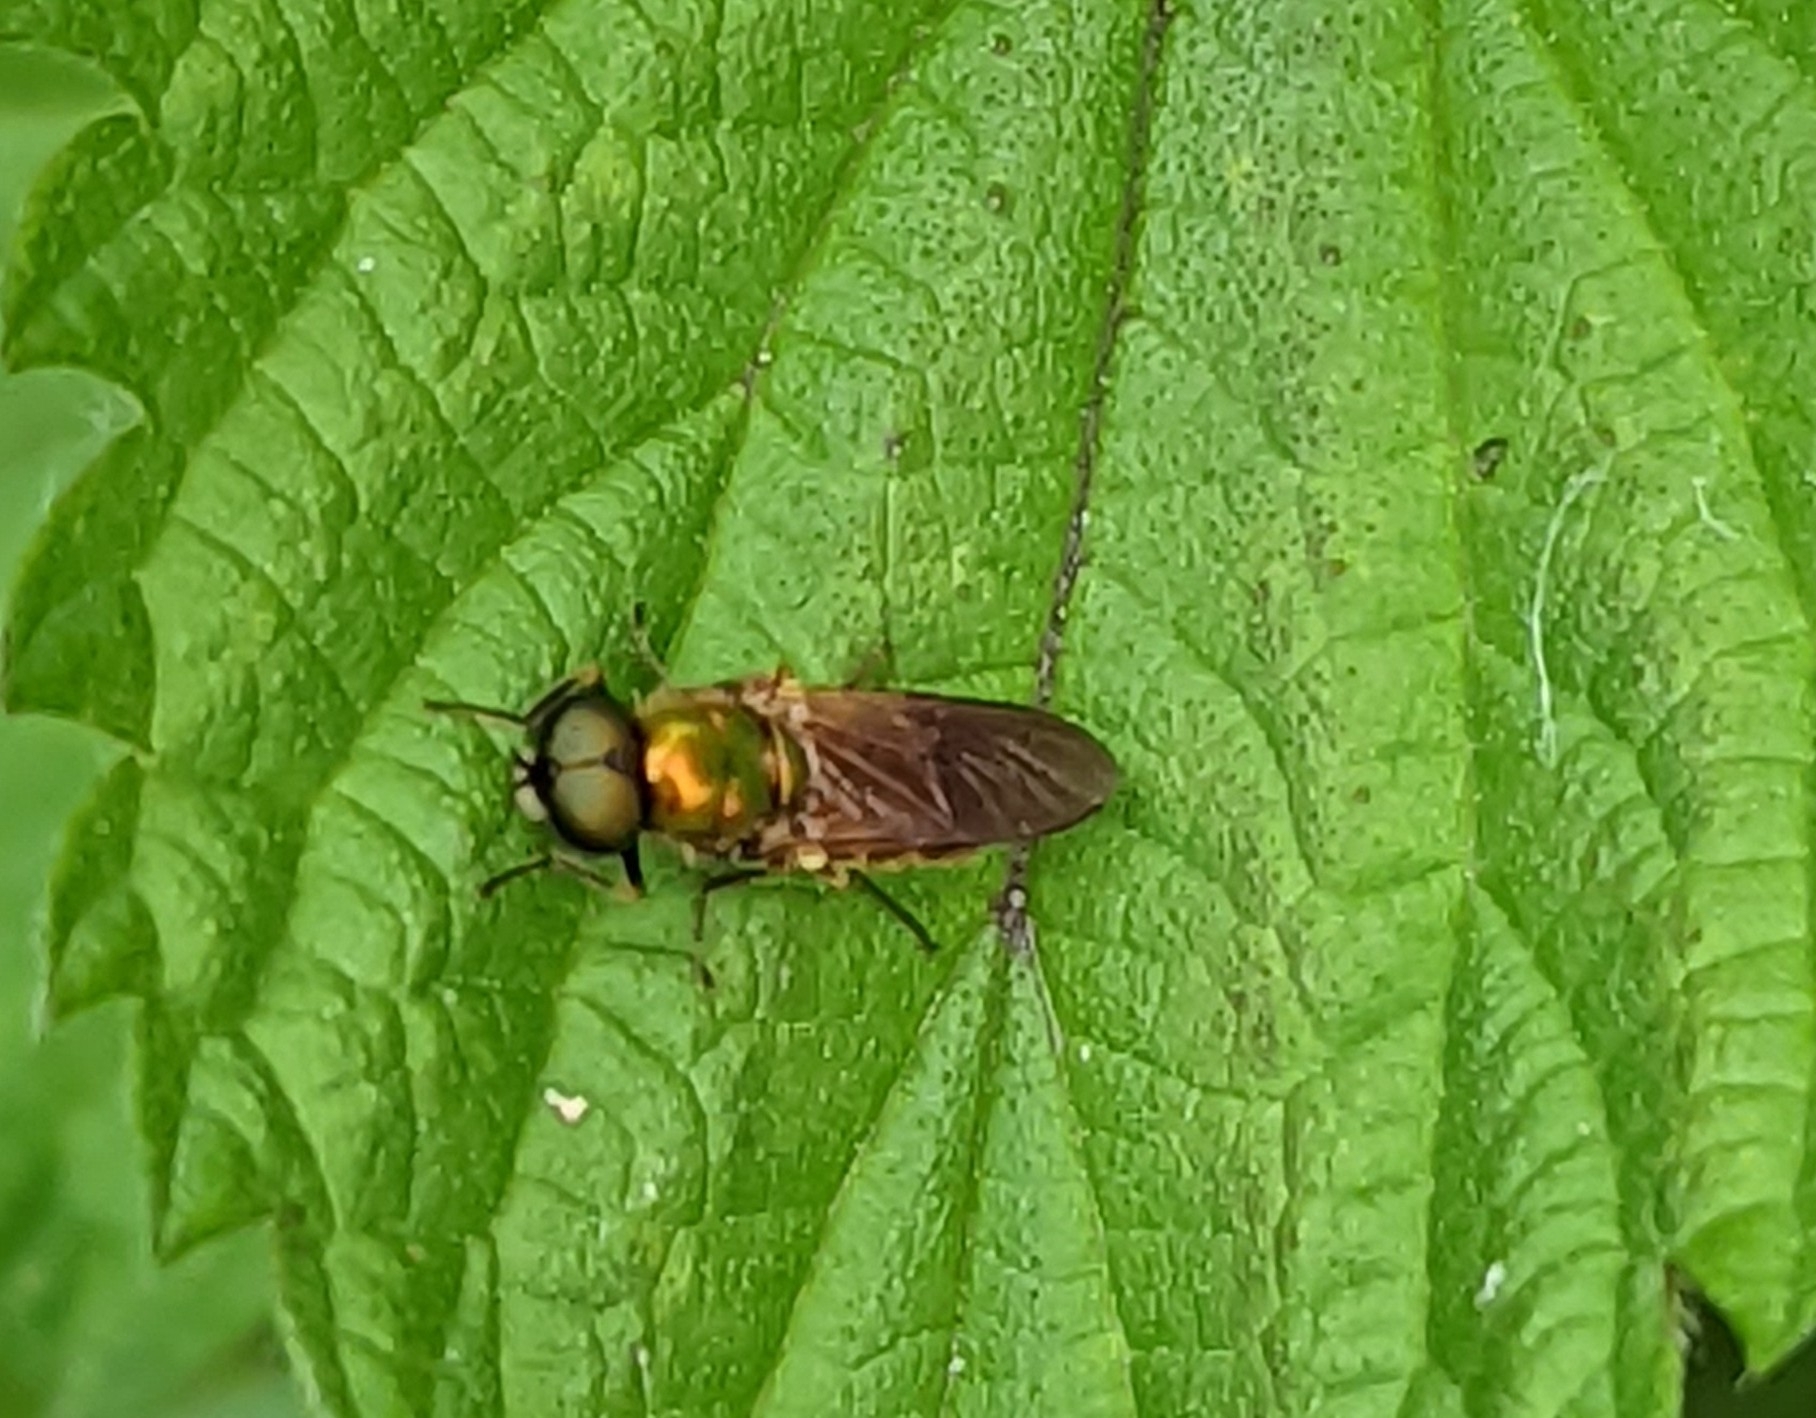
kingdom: Animalia
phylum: Arthropoda
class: Insecta
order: Diptera
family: Stratiomyidae
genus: Chloromyia
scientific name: Chloromyia formosa
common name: Soldier fly
